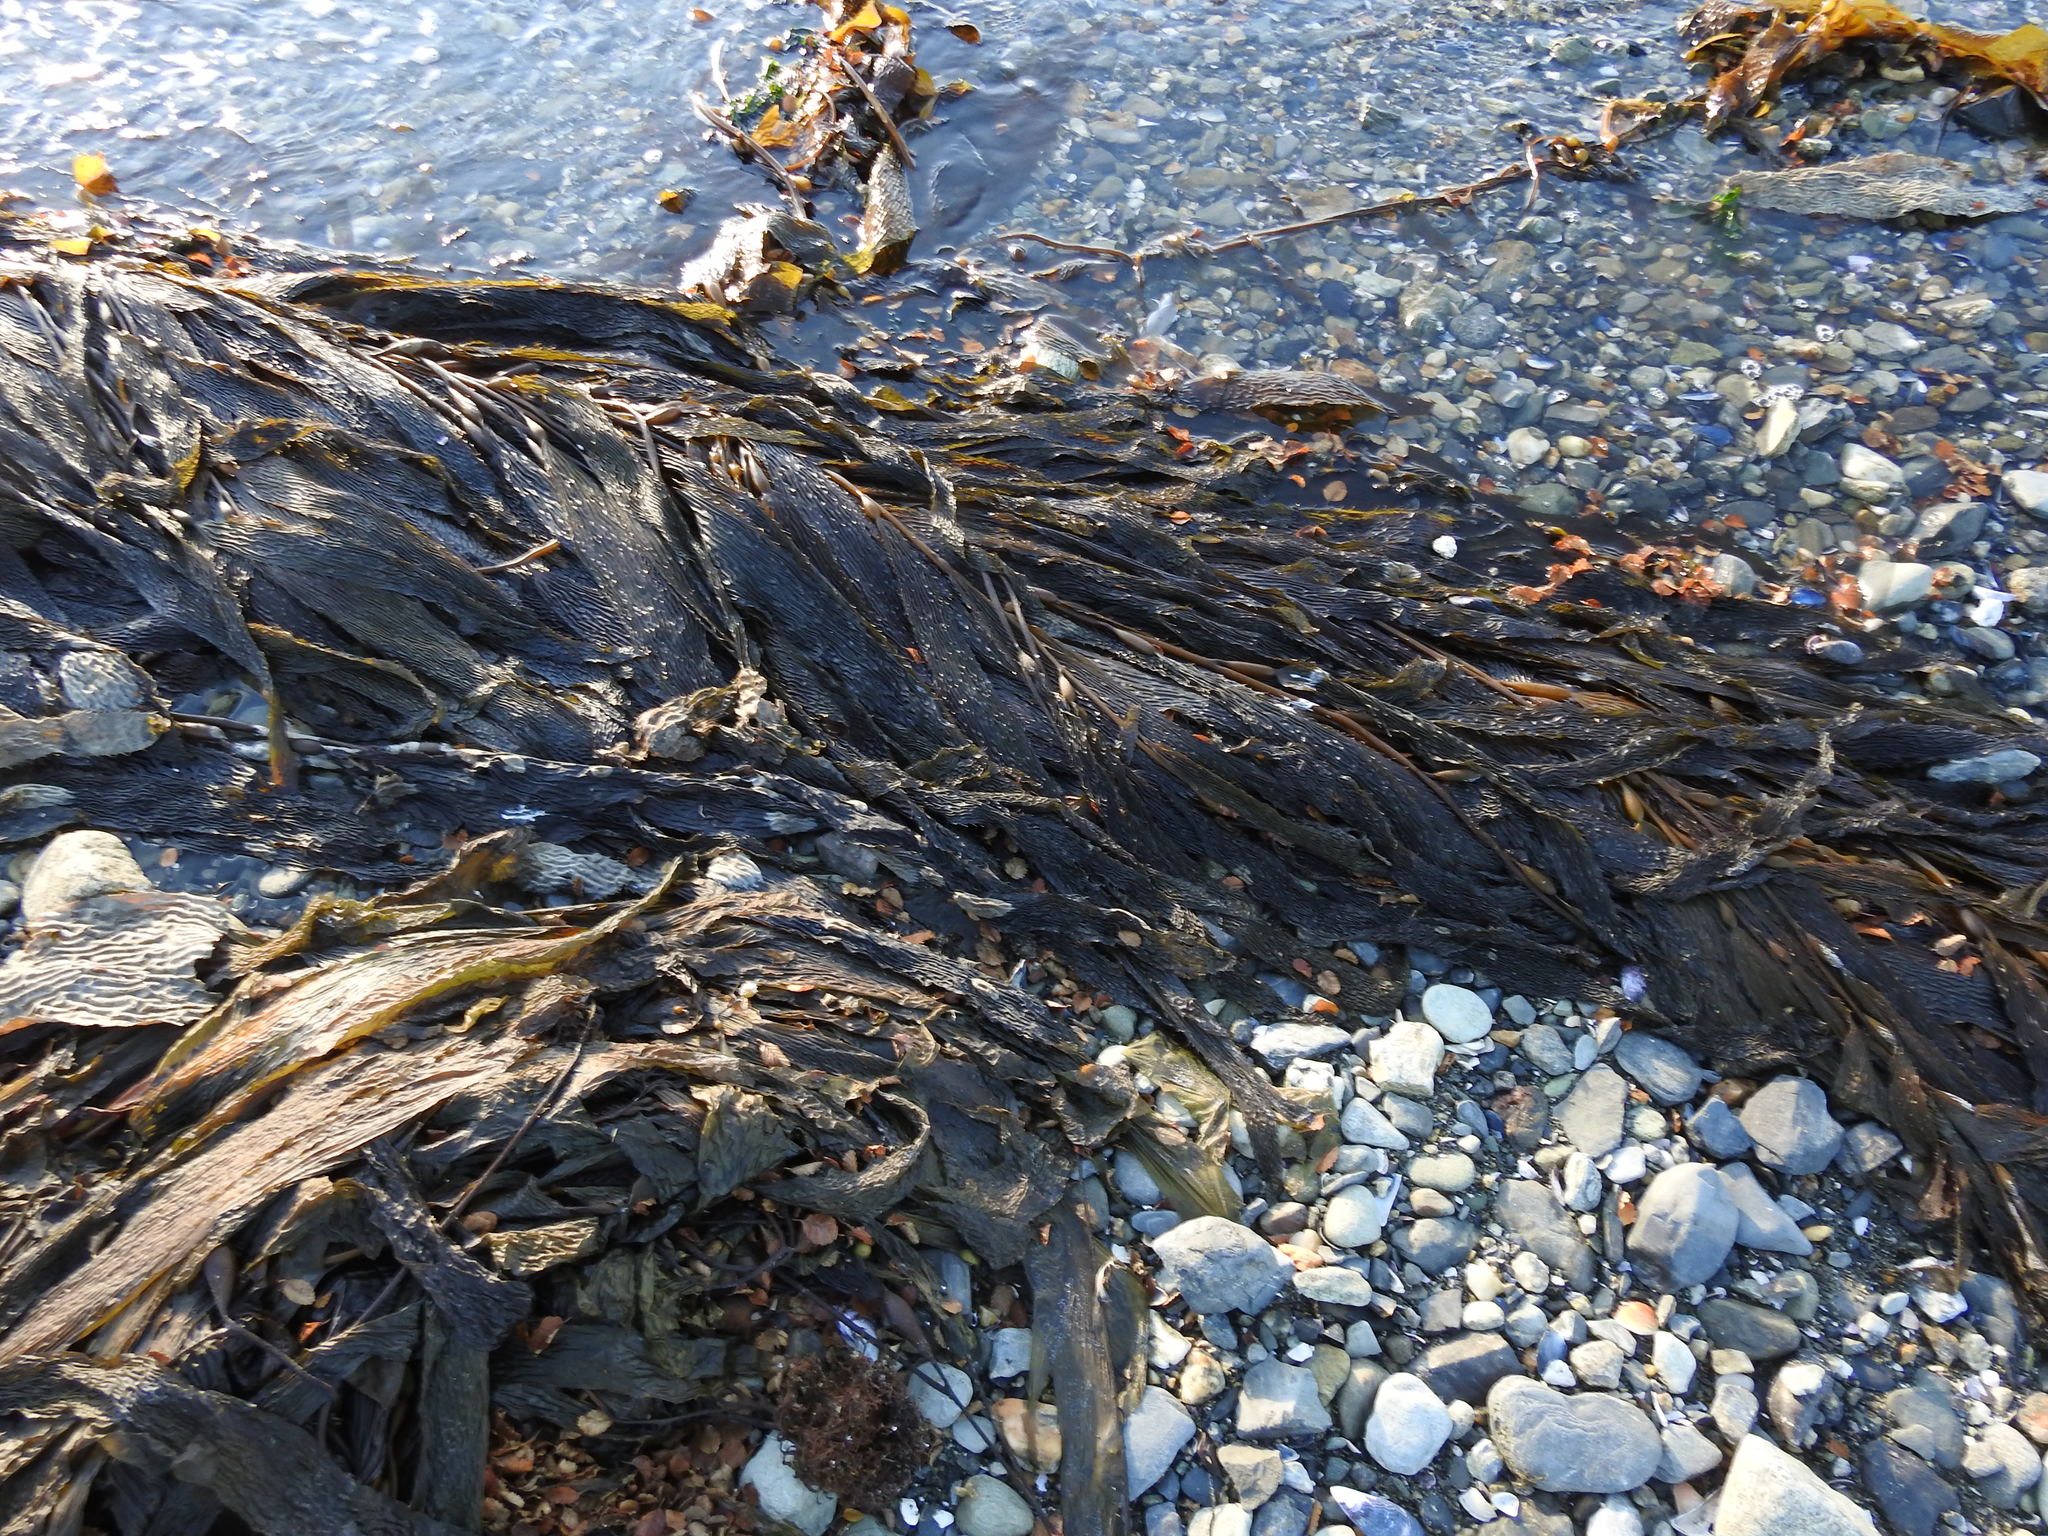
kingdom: Chromista
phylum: Ochrophyta
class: Phaeophyceae
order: Laminariales
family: Laminariaceae
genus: Macrocystis
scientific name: Macrocystis pyrifera
